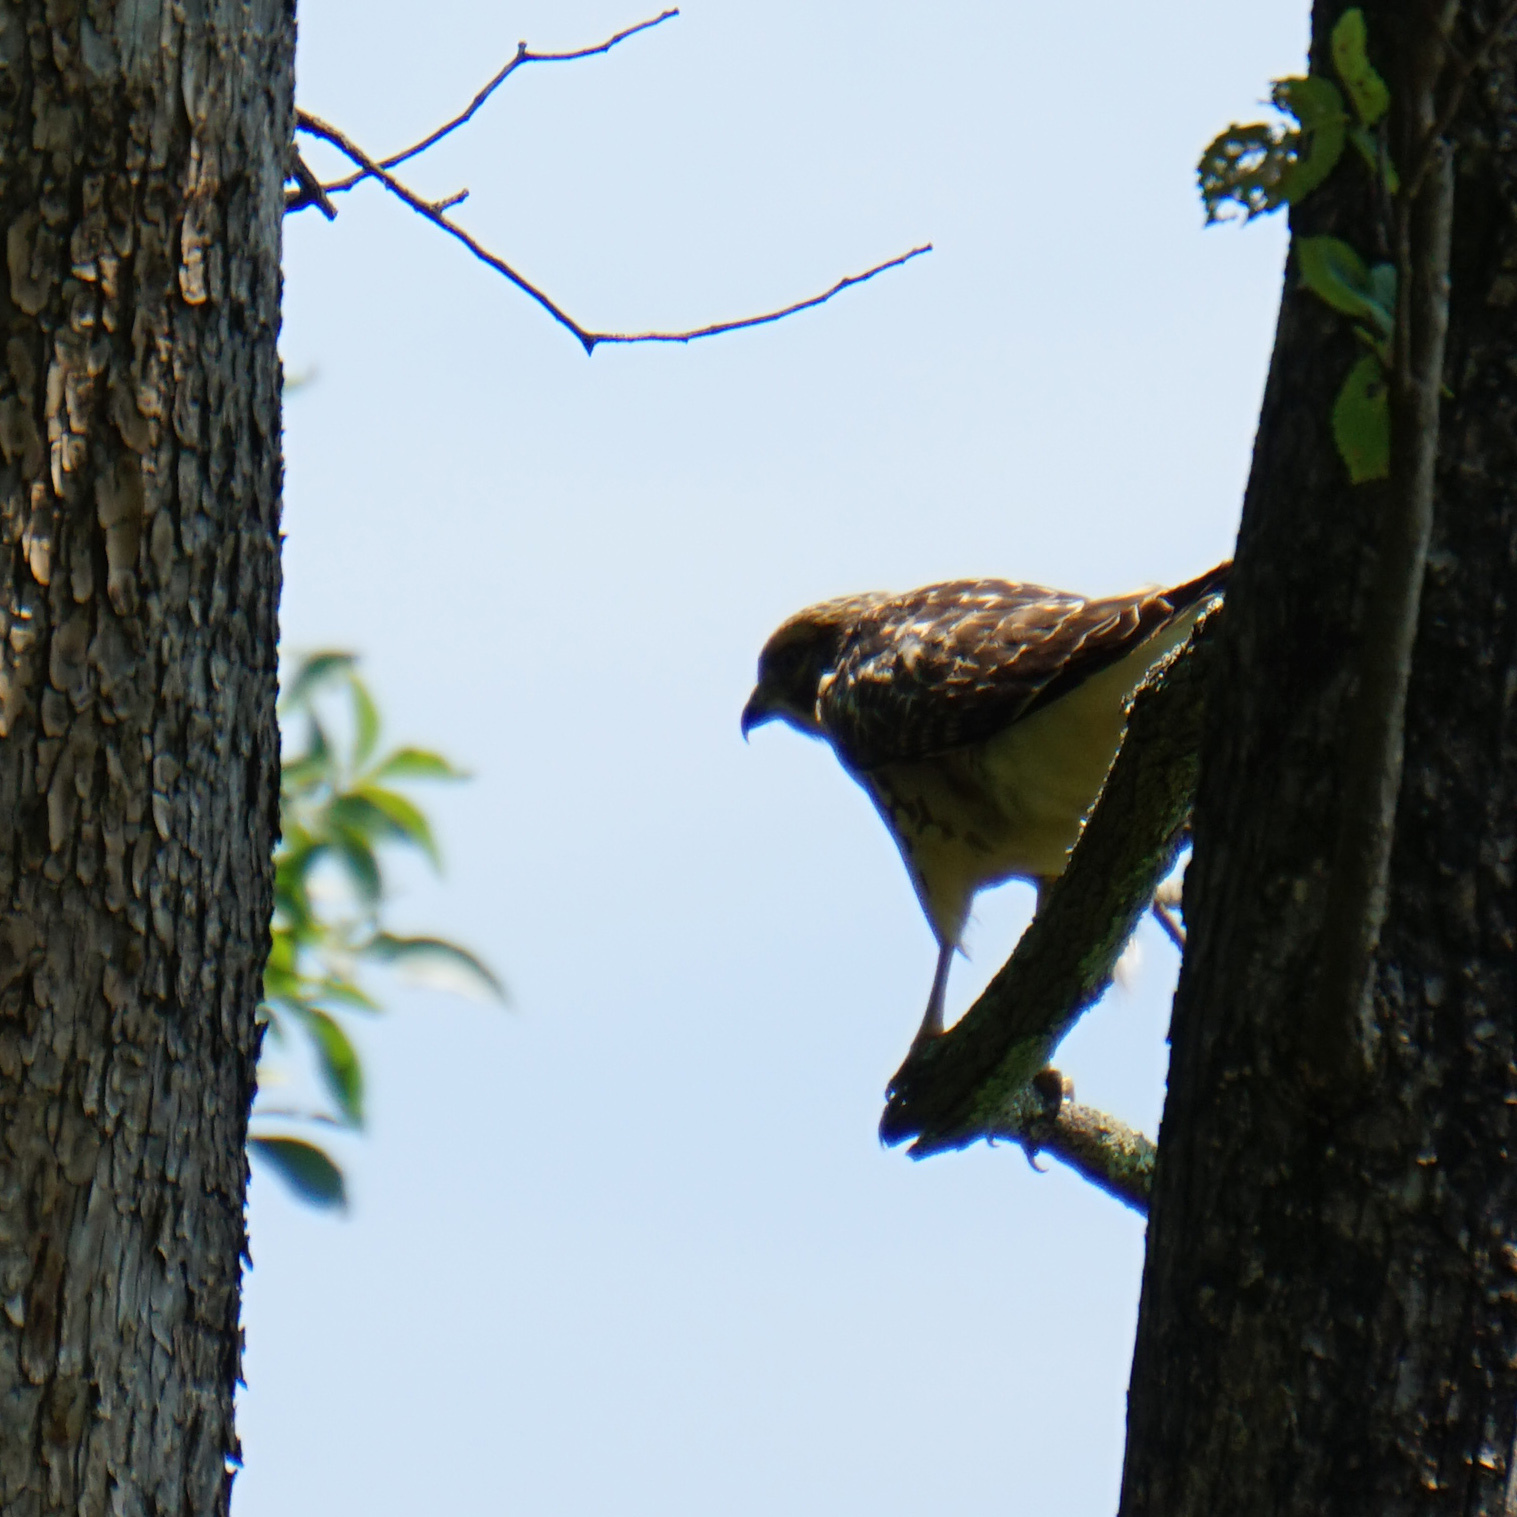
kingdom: Animalia
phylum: Chordata
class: Aves
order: Accipitriformes
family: Accipitridae
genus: Buteo
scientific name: Buteo lineatus
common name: Red-shouldered hawk
